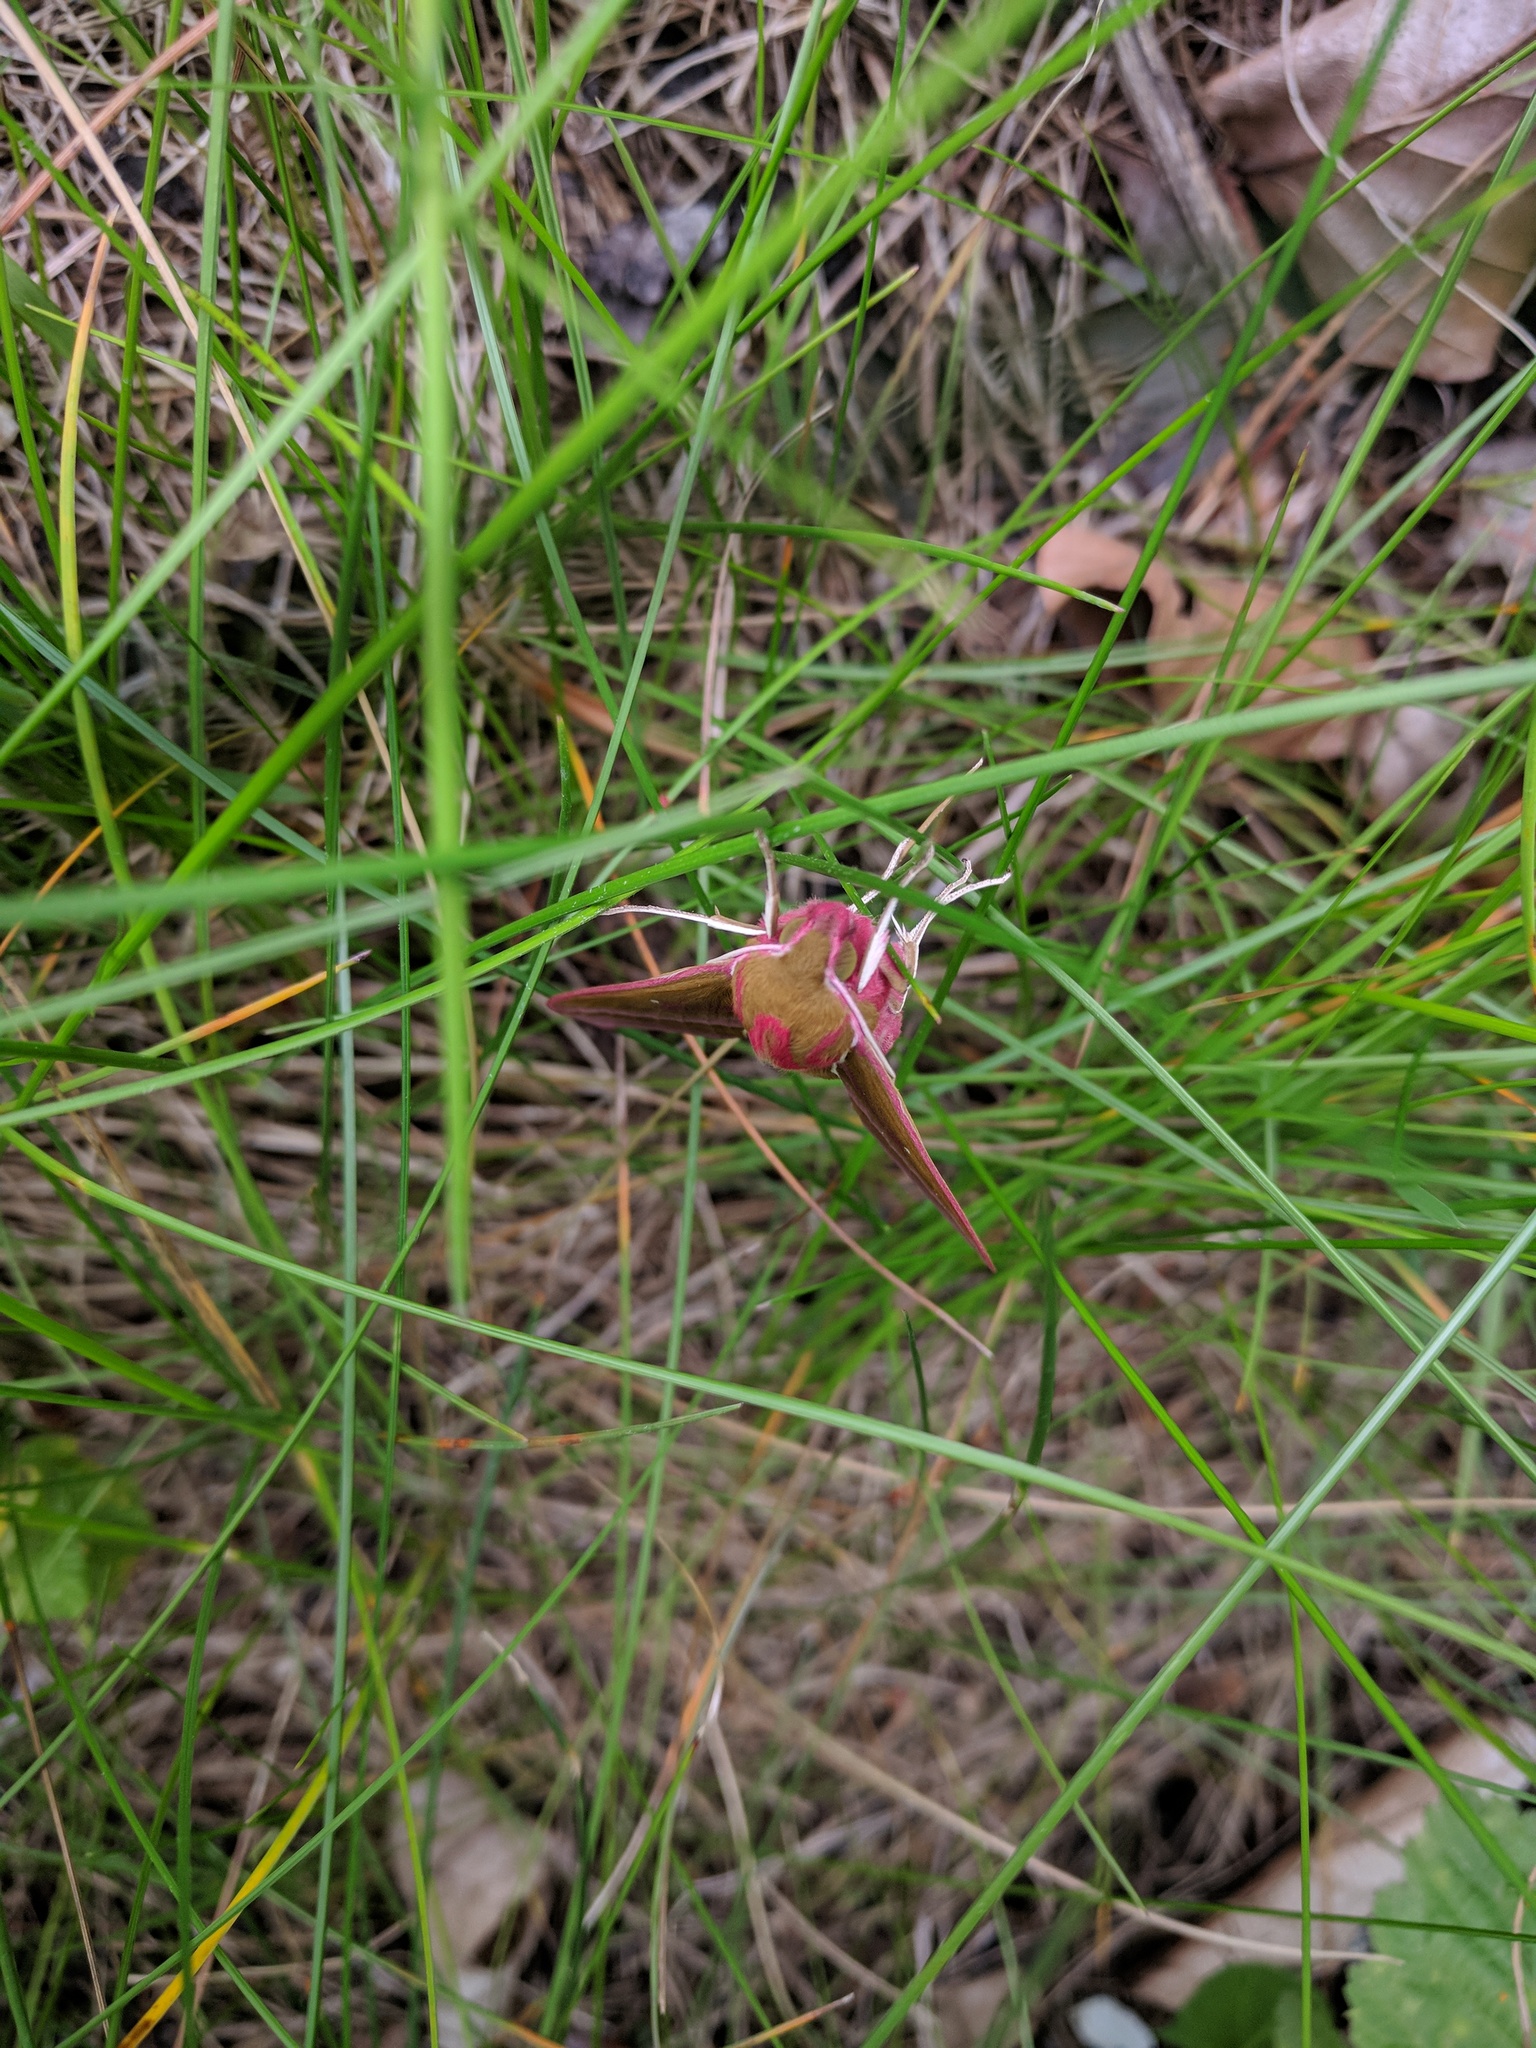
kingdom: Animalia
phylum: Arthropoda
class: Insecta
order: Lepidoptera
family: Sphingidae
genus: Deilephila
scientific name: Deilephila elpenor
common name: Elephant hawk-moth
